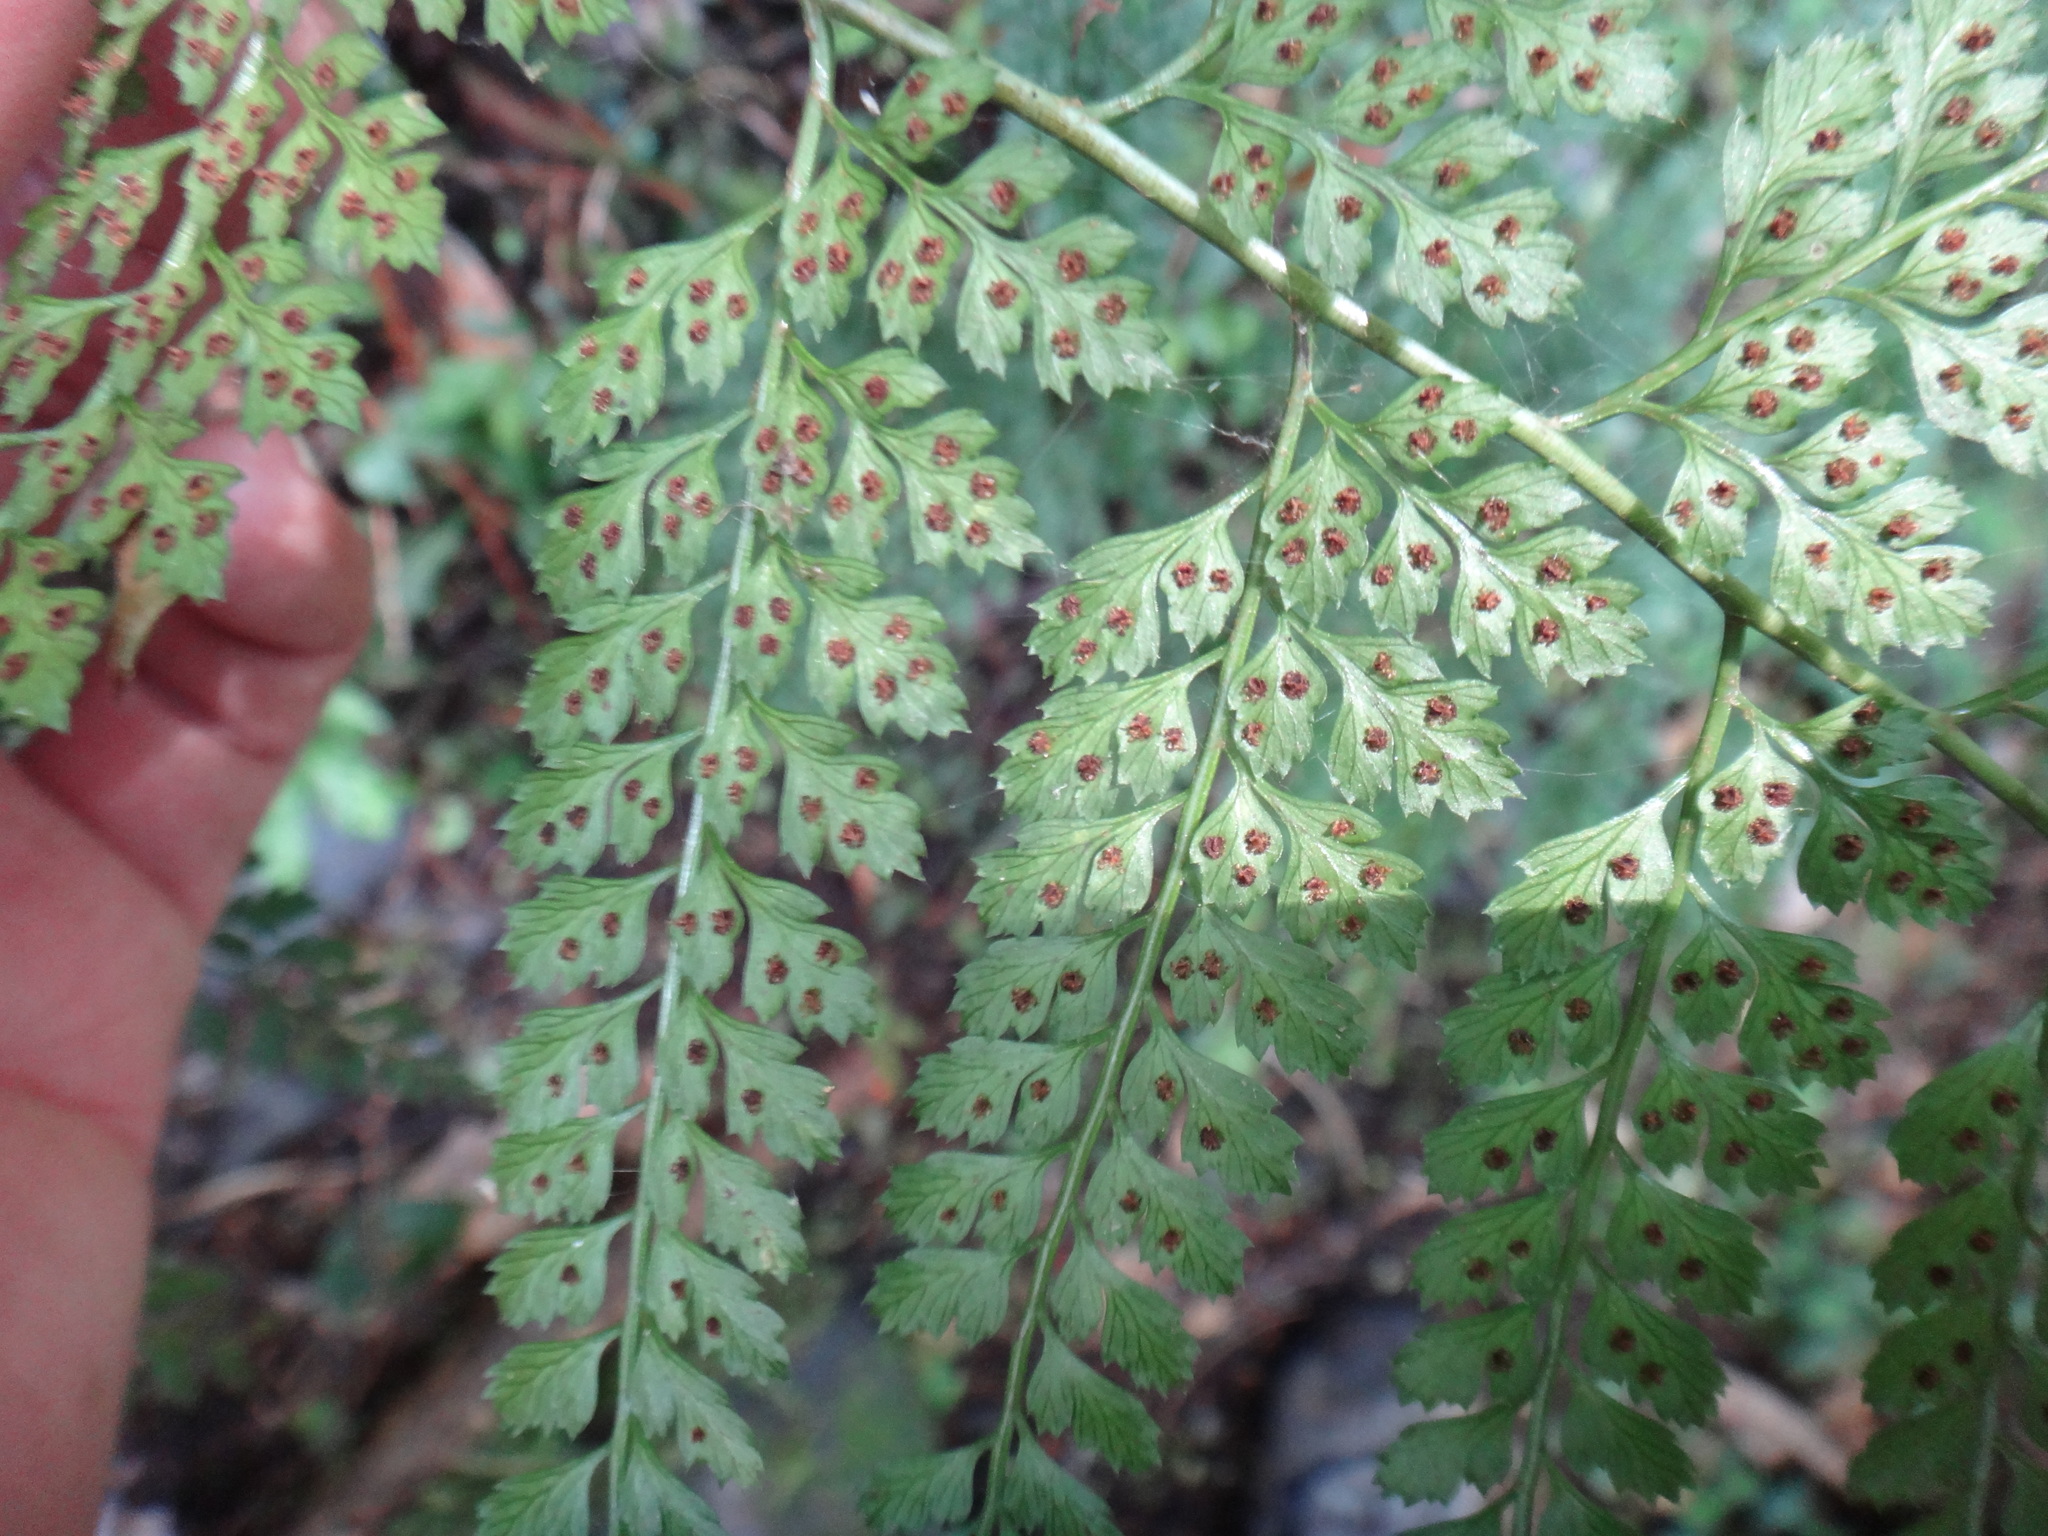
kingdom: Plantae
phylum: Tracheophyta
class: Polypodiopsida
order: Polypodiales
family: Dryopteridaceae
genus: Arachniodes
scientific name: Arachniodes festina
